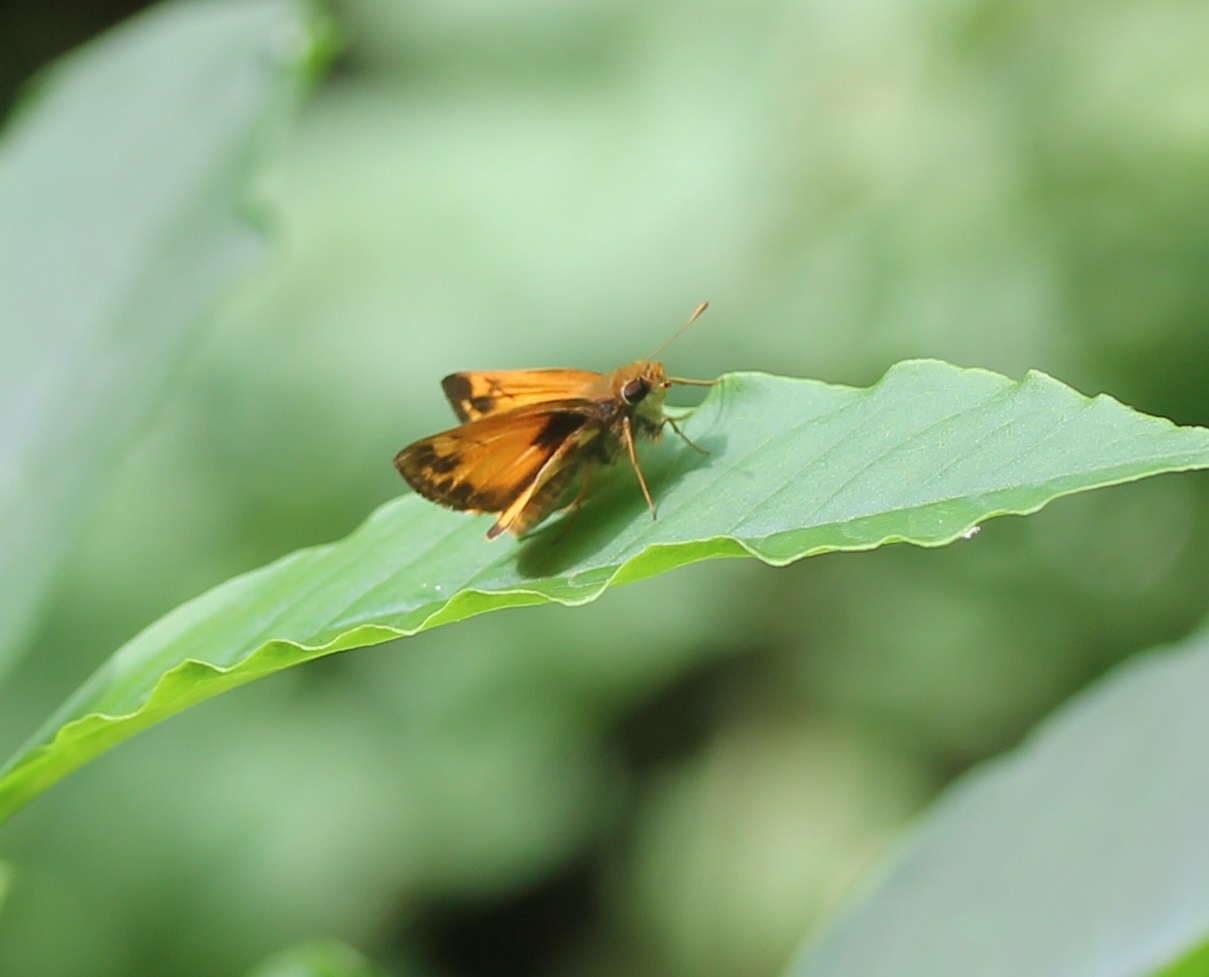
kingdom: Animalia
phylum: Arthropoda
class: Insecta
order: Lepidoptera
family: Hesperiidae
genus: Lon
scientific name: Lon zabulon
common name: Zabulon skipper
